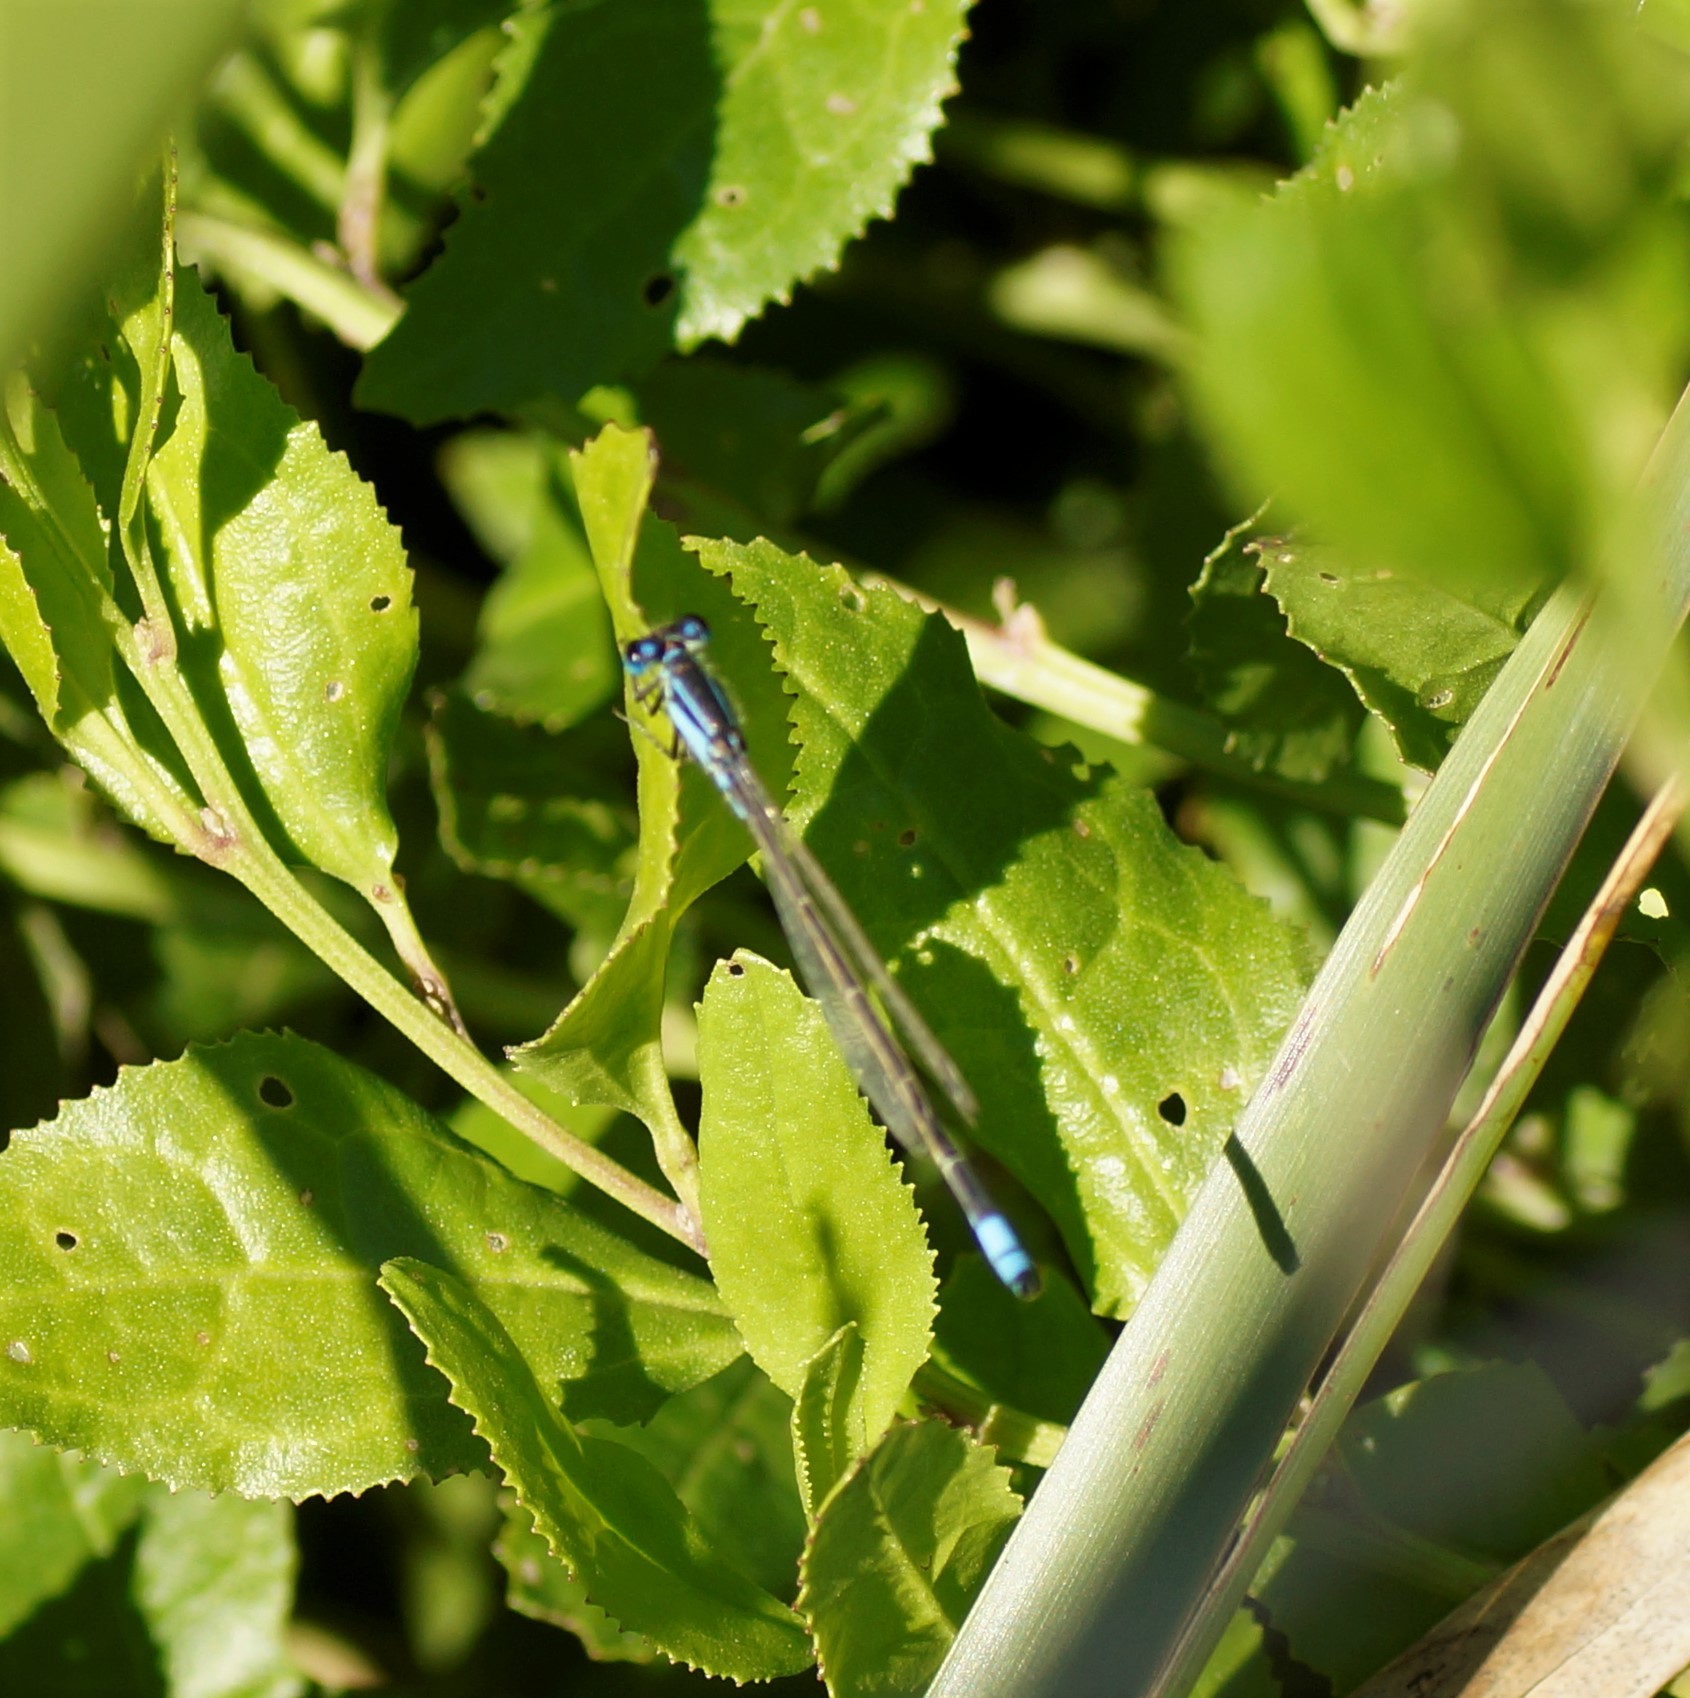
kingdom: Animalia
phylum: Arthropoda
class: Insecta
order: Odonata
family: Coenagrionidae
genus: Ischnura
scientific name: Ischnura heterosticta
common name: Common bluetail
